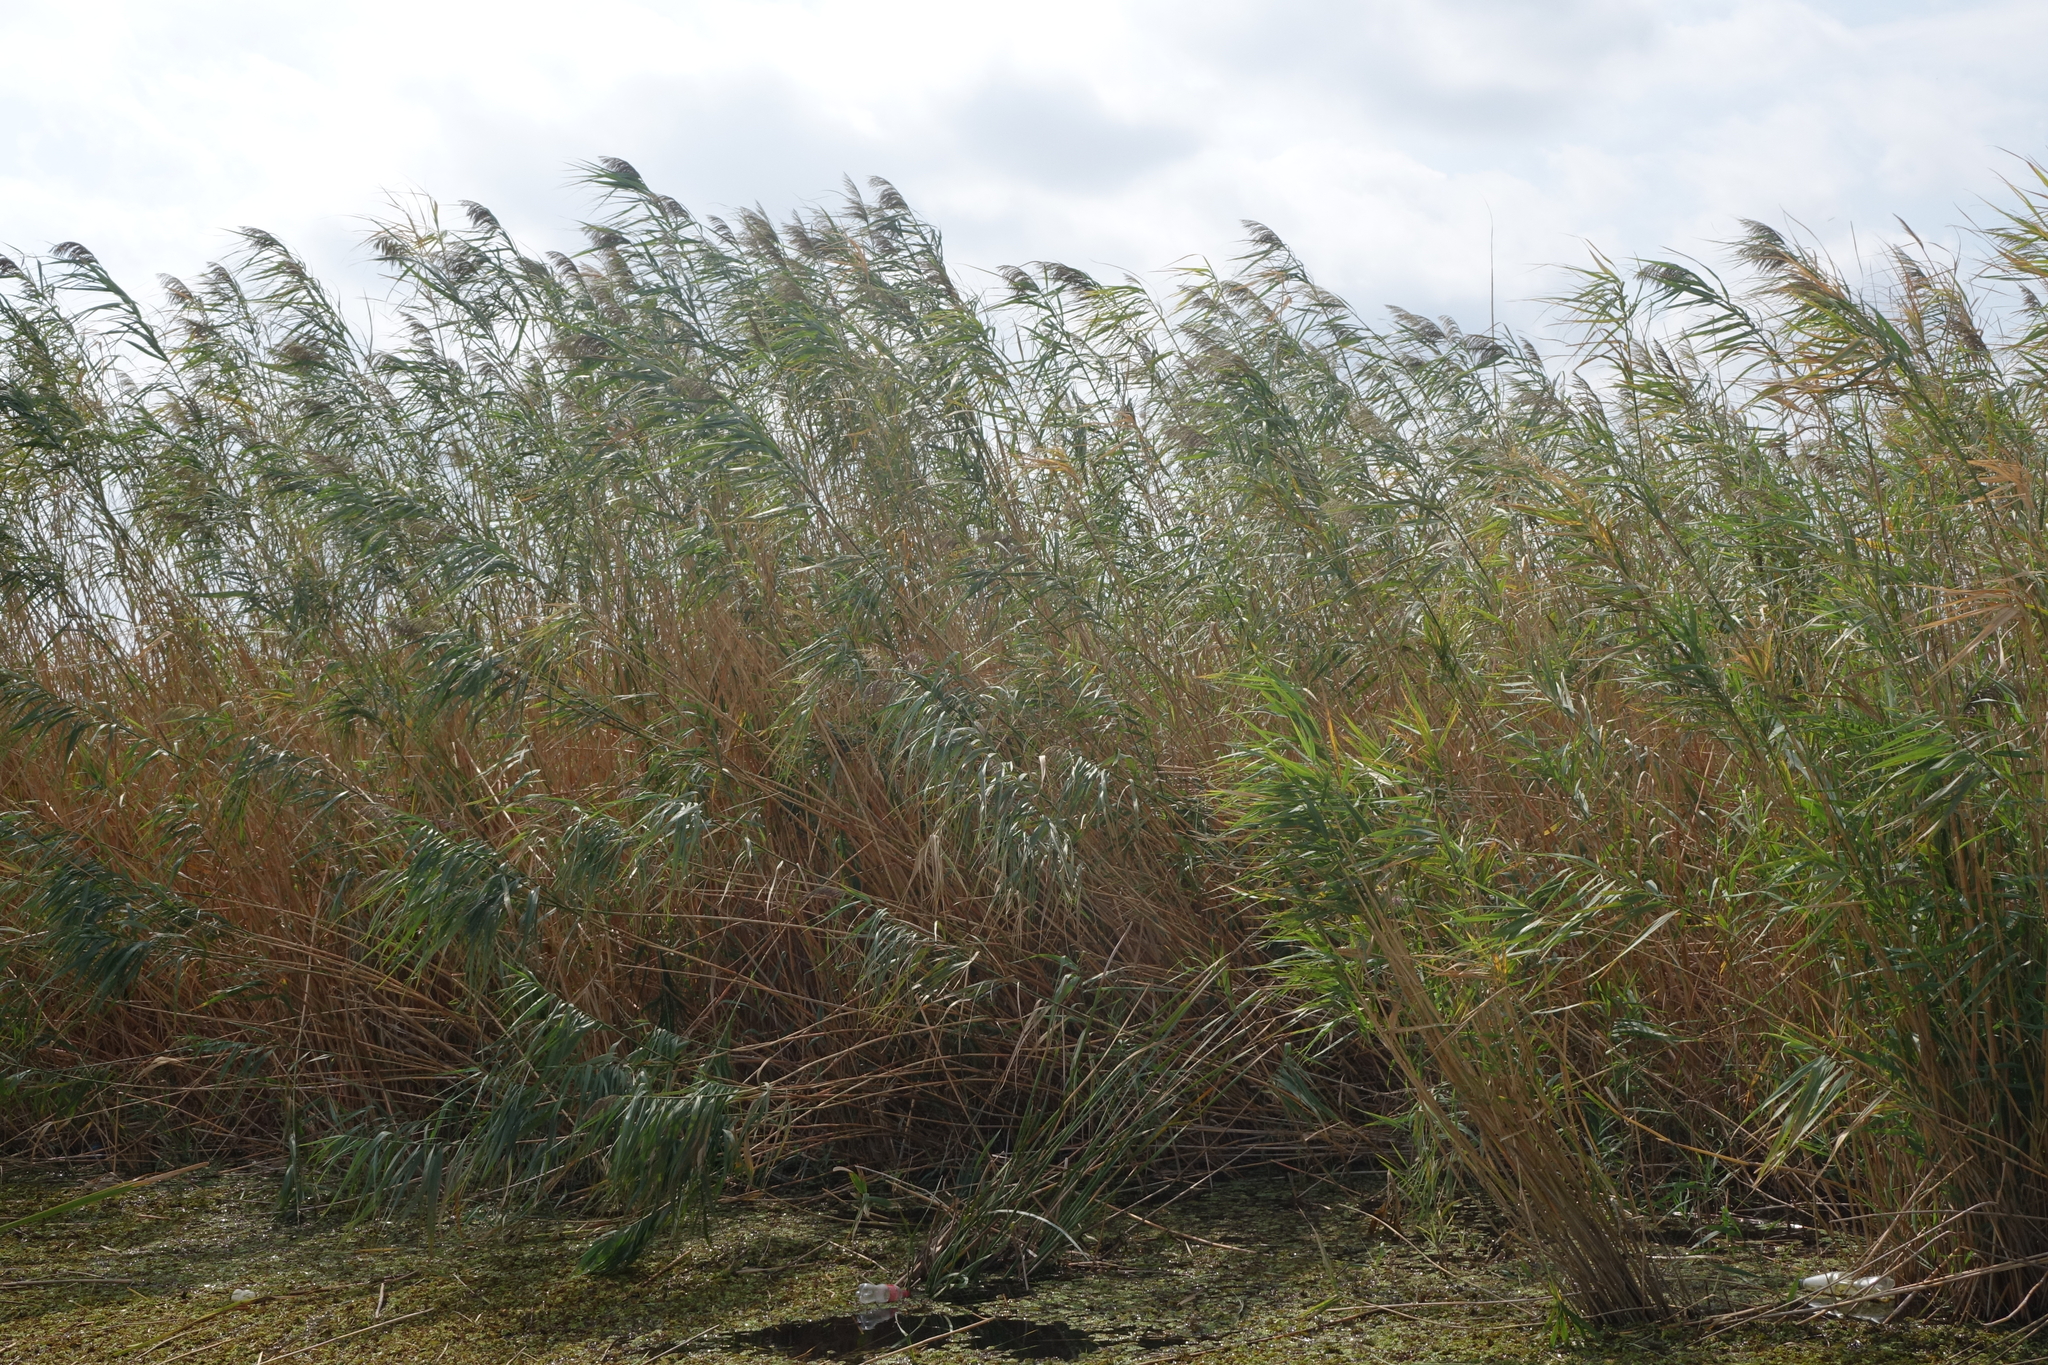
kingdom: Plantae
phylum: Tracheophyta
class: Liliopsida
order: Poales
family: Poaceae
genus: Phragmites
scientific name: Phragmites australis
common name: Common reed
